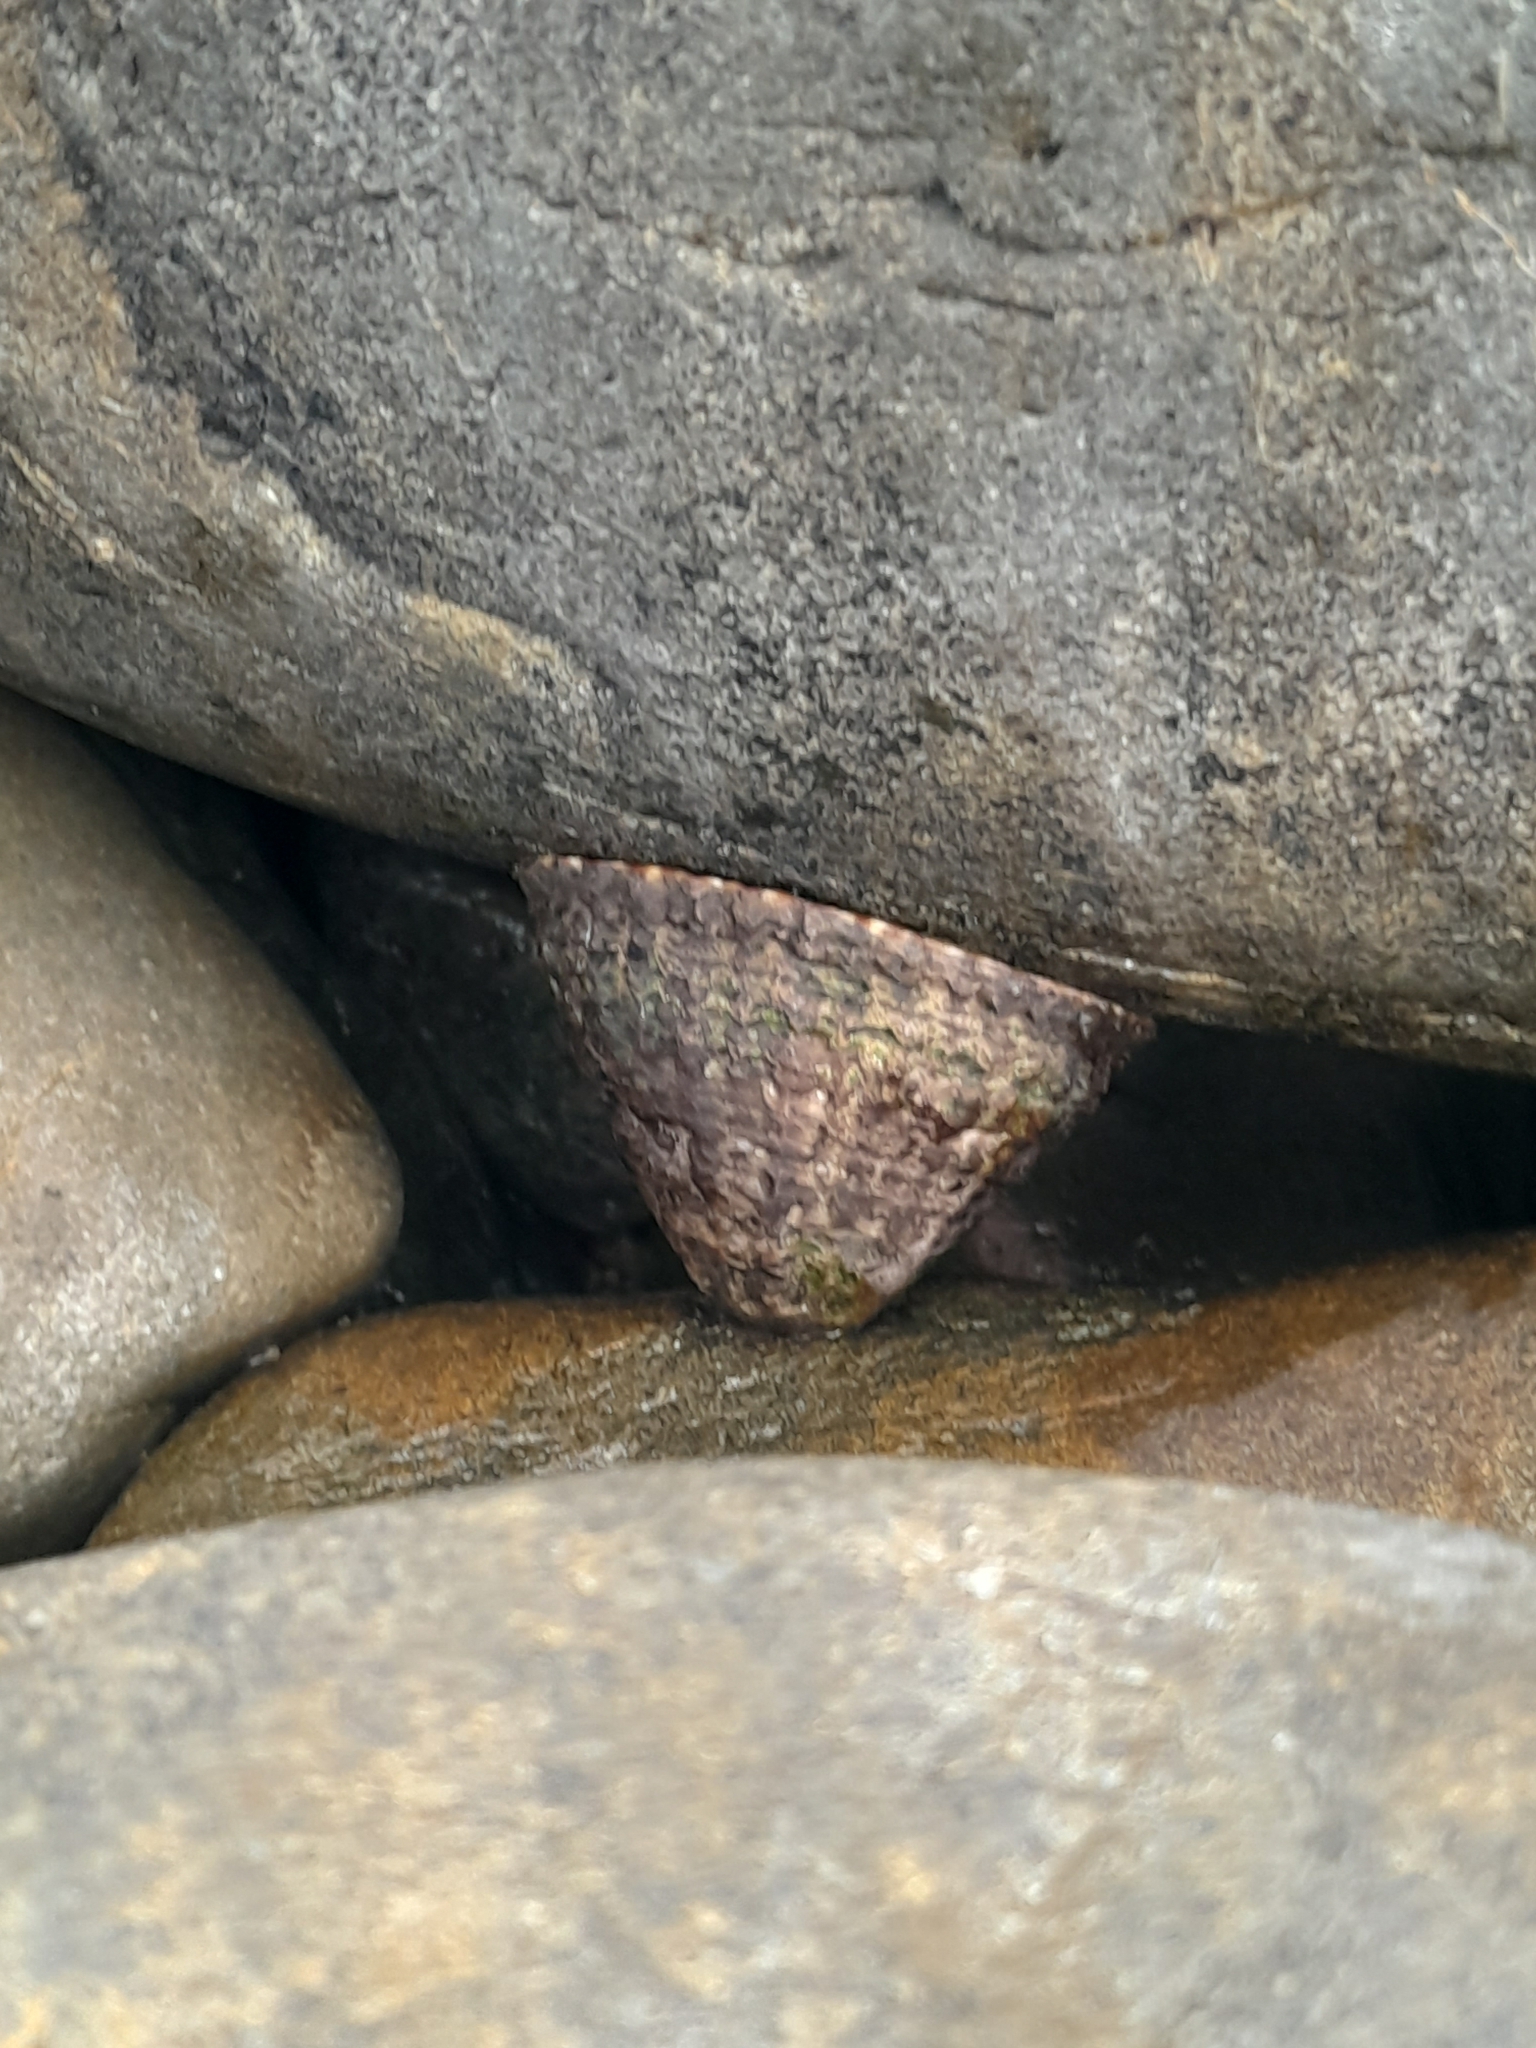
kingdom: Animalia
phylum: Mollusca
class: Gastropoda
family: Nacellidae
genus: Cellana
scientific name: Cellana denticulata
